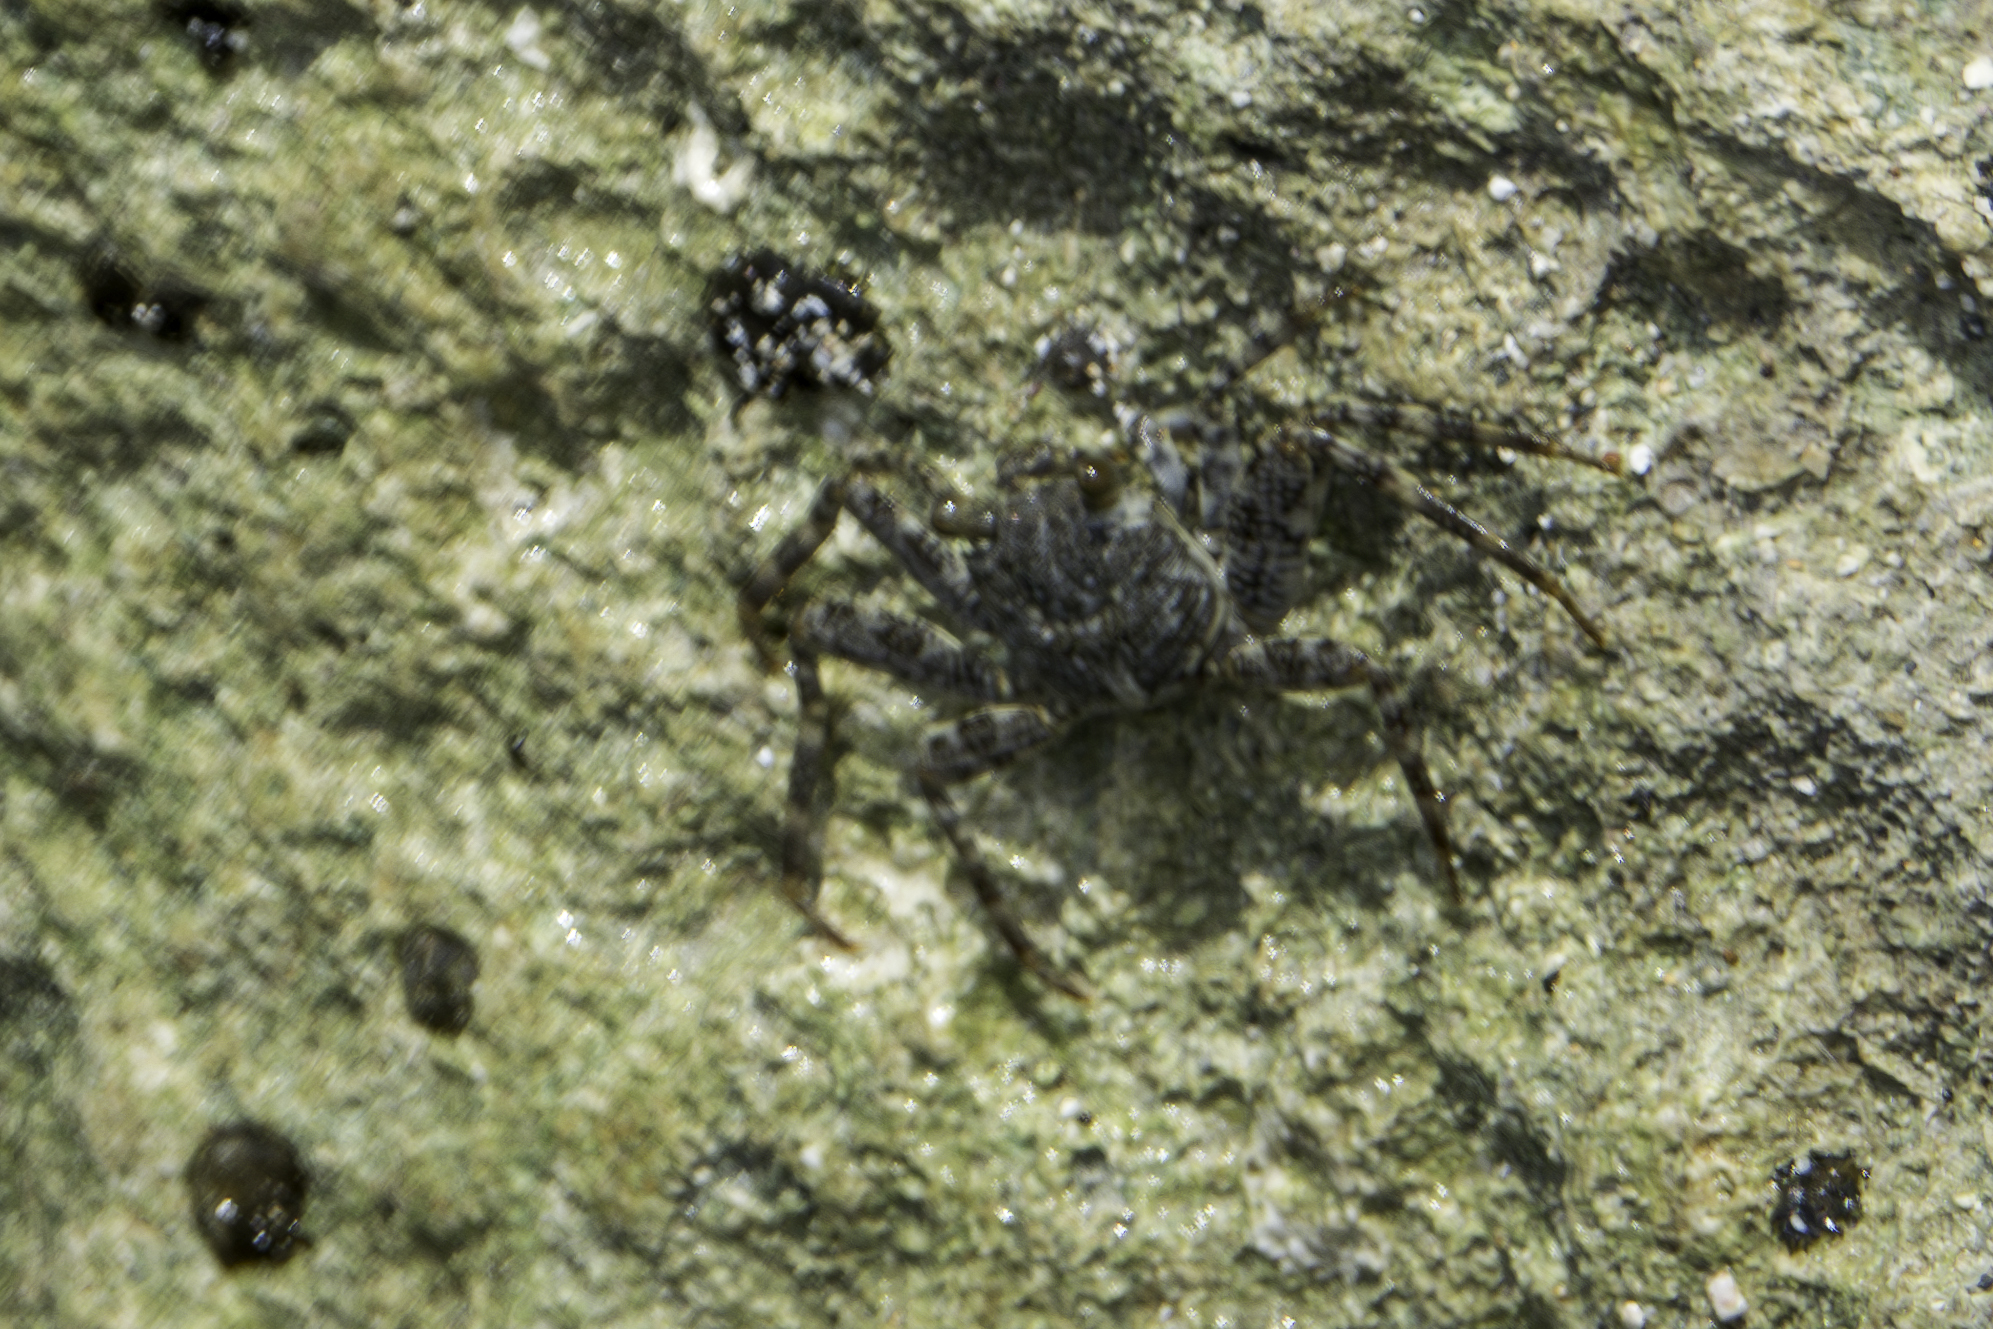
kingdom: Animalia
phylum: Arthropoda
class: Malacostraca
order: Decapoda
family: Grapsidae
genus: Grapsus
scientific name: Grapsus grapsus
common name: Sally lightfoot
